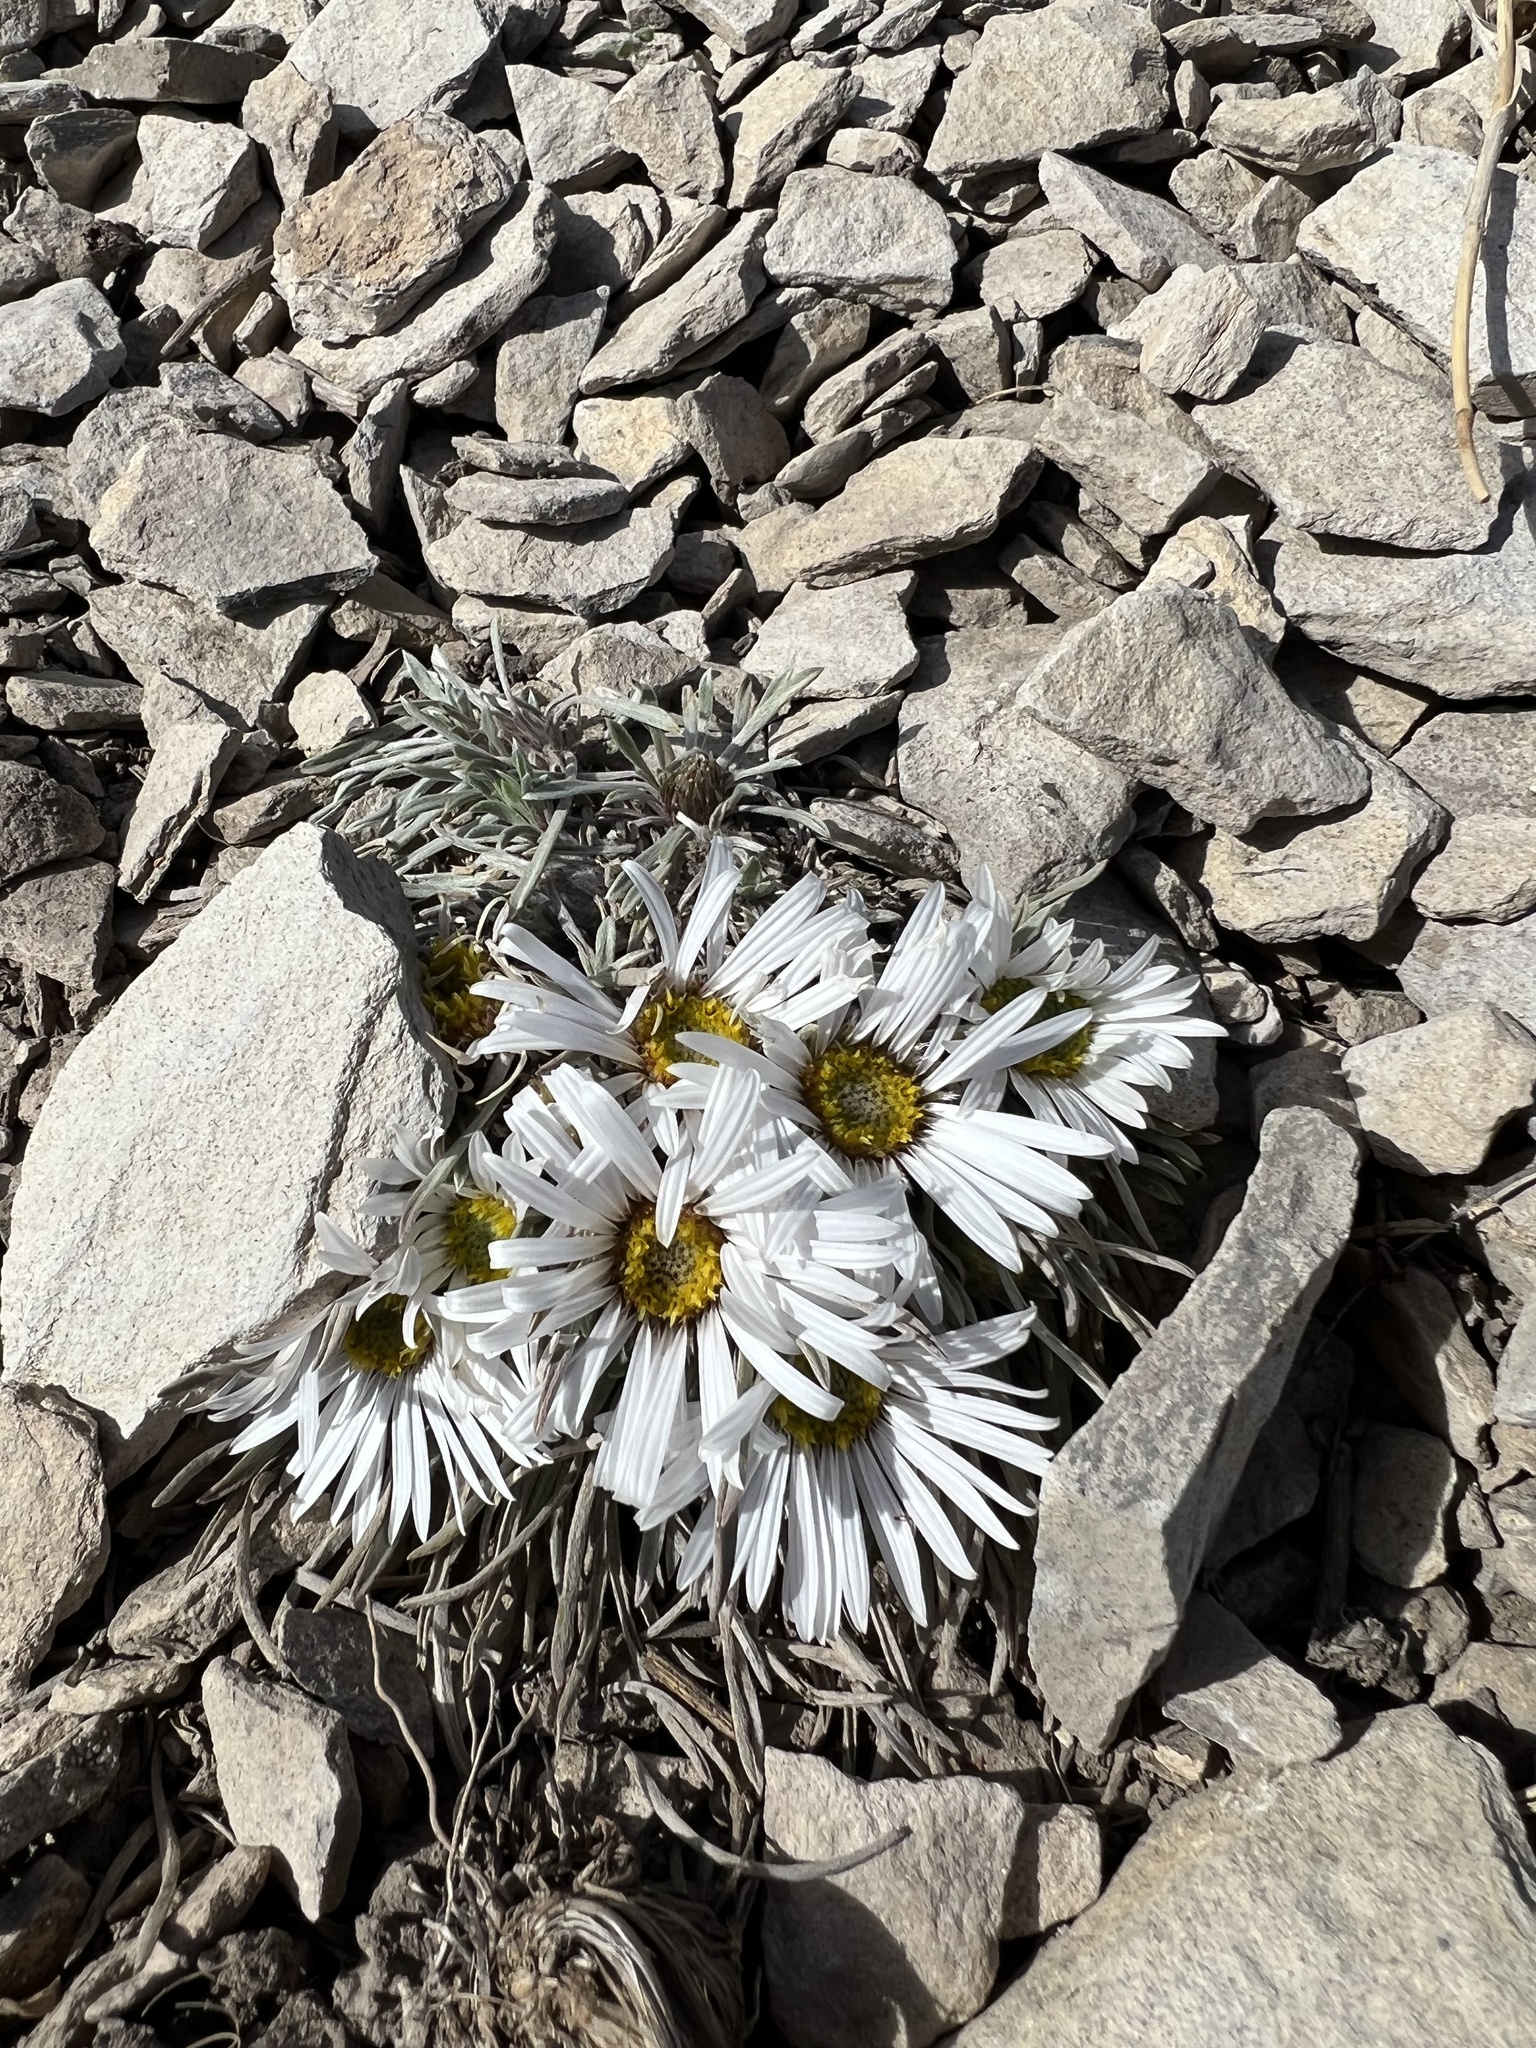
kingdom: Plantae
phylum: Tracheophyta
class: Magnoliopsida
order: Asterales
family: Asteraceae
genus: Townsendia
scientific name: Townsendia hookeri
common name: Hooker's townsend daisy
